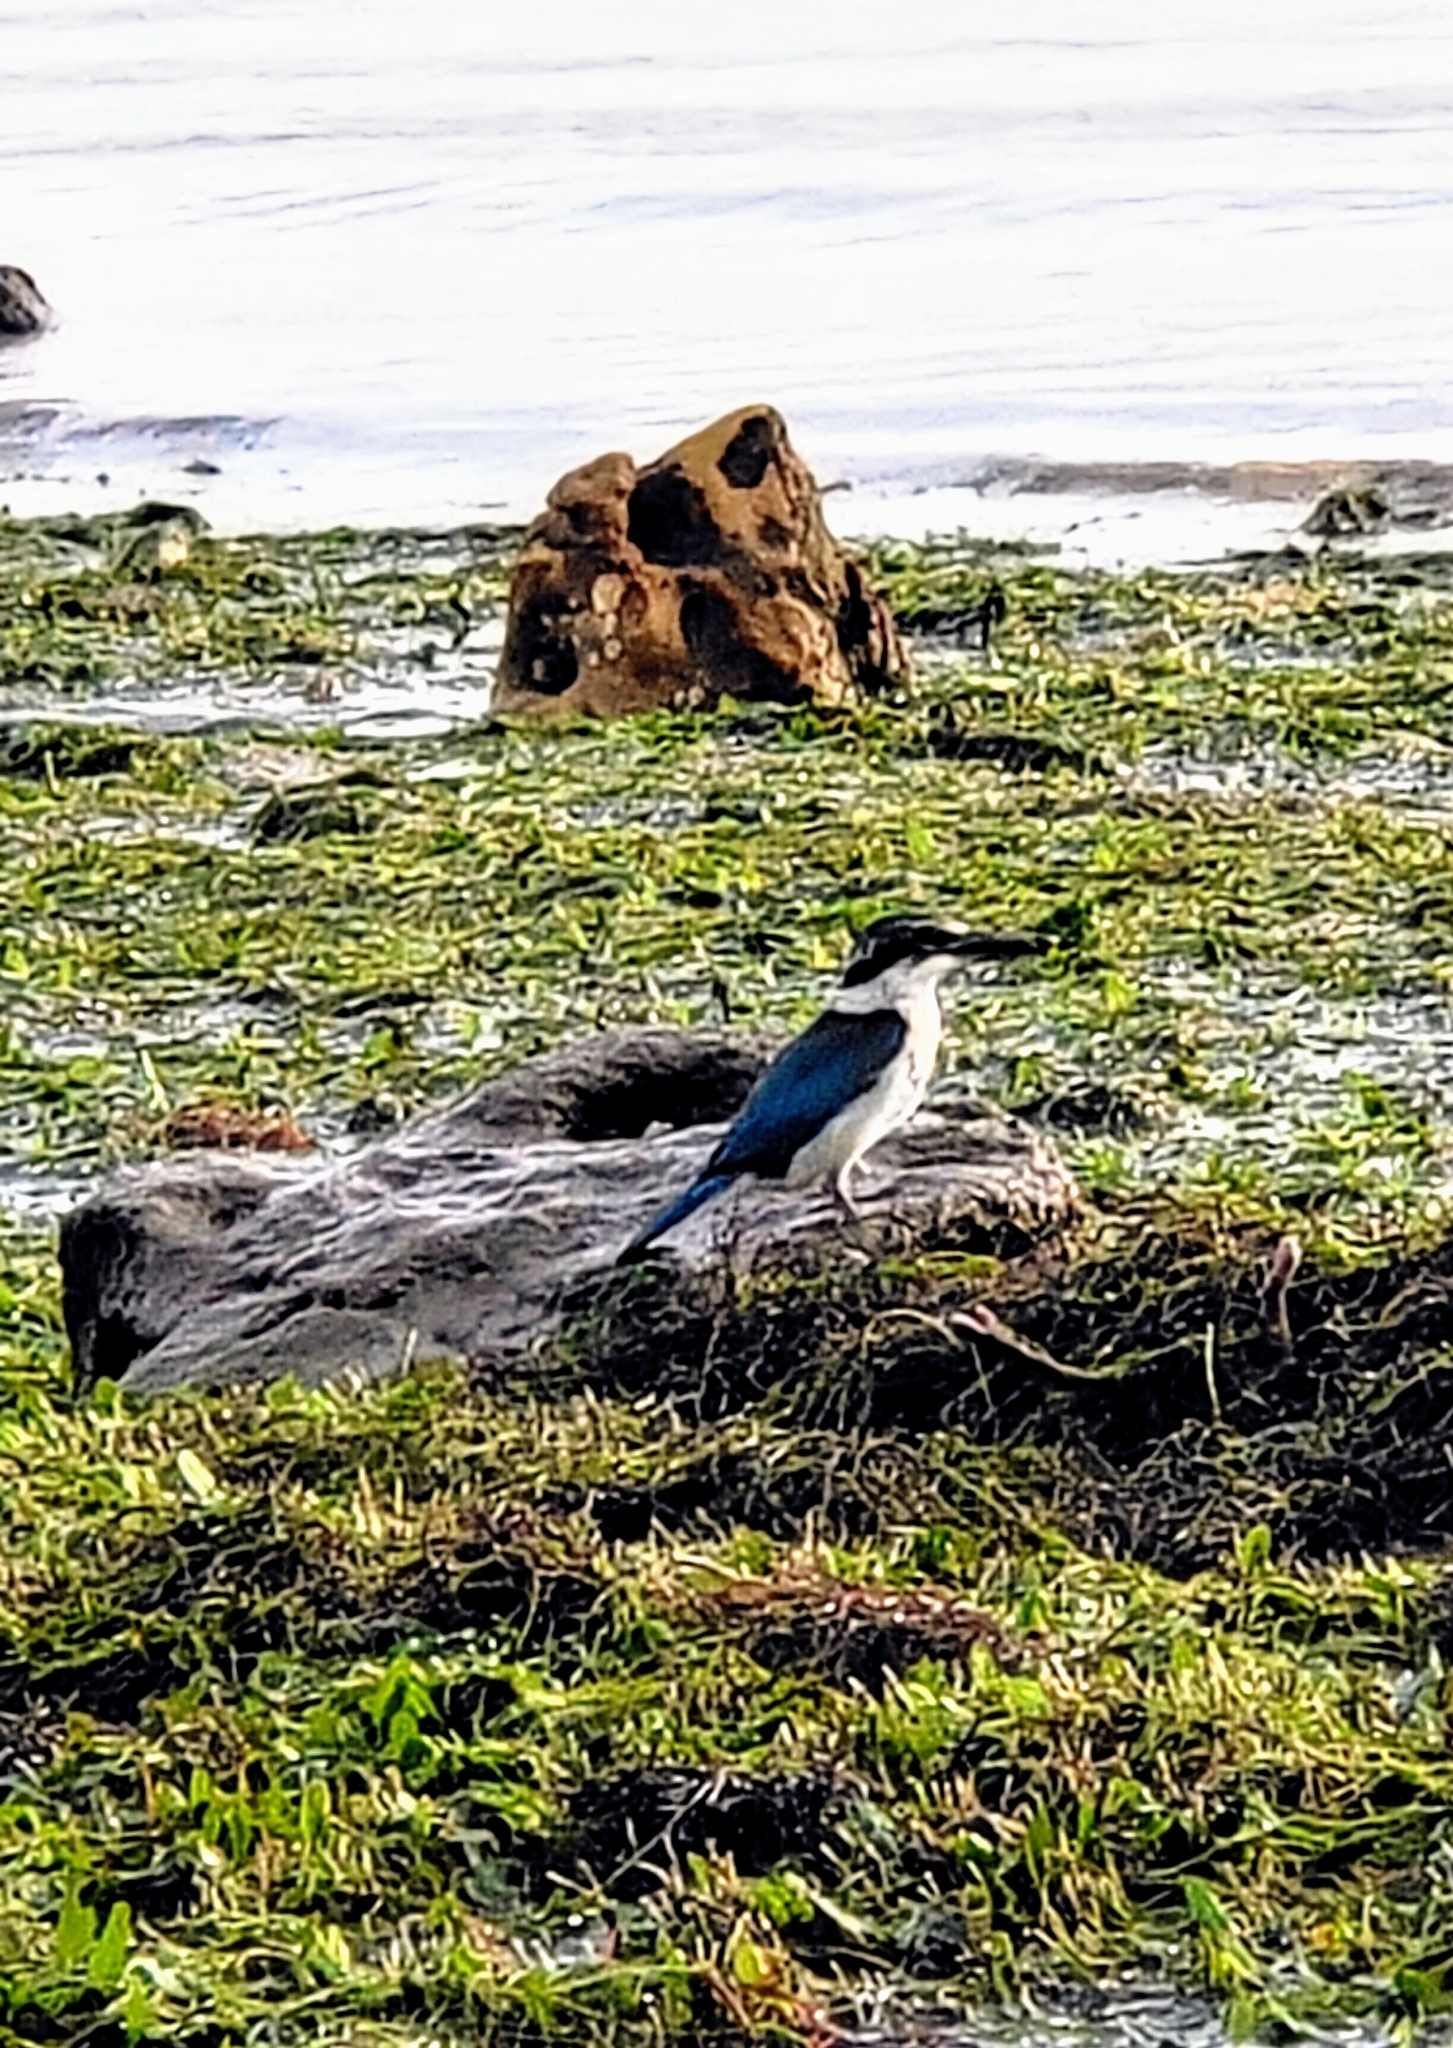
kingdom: Animalia
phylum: Chordata
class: Aves
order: Coraciiformes
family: Alcedinidae
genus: Todiramphus
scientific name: Todiramphus chloris
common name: Collared kingfisher
